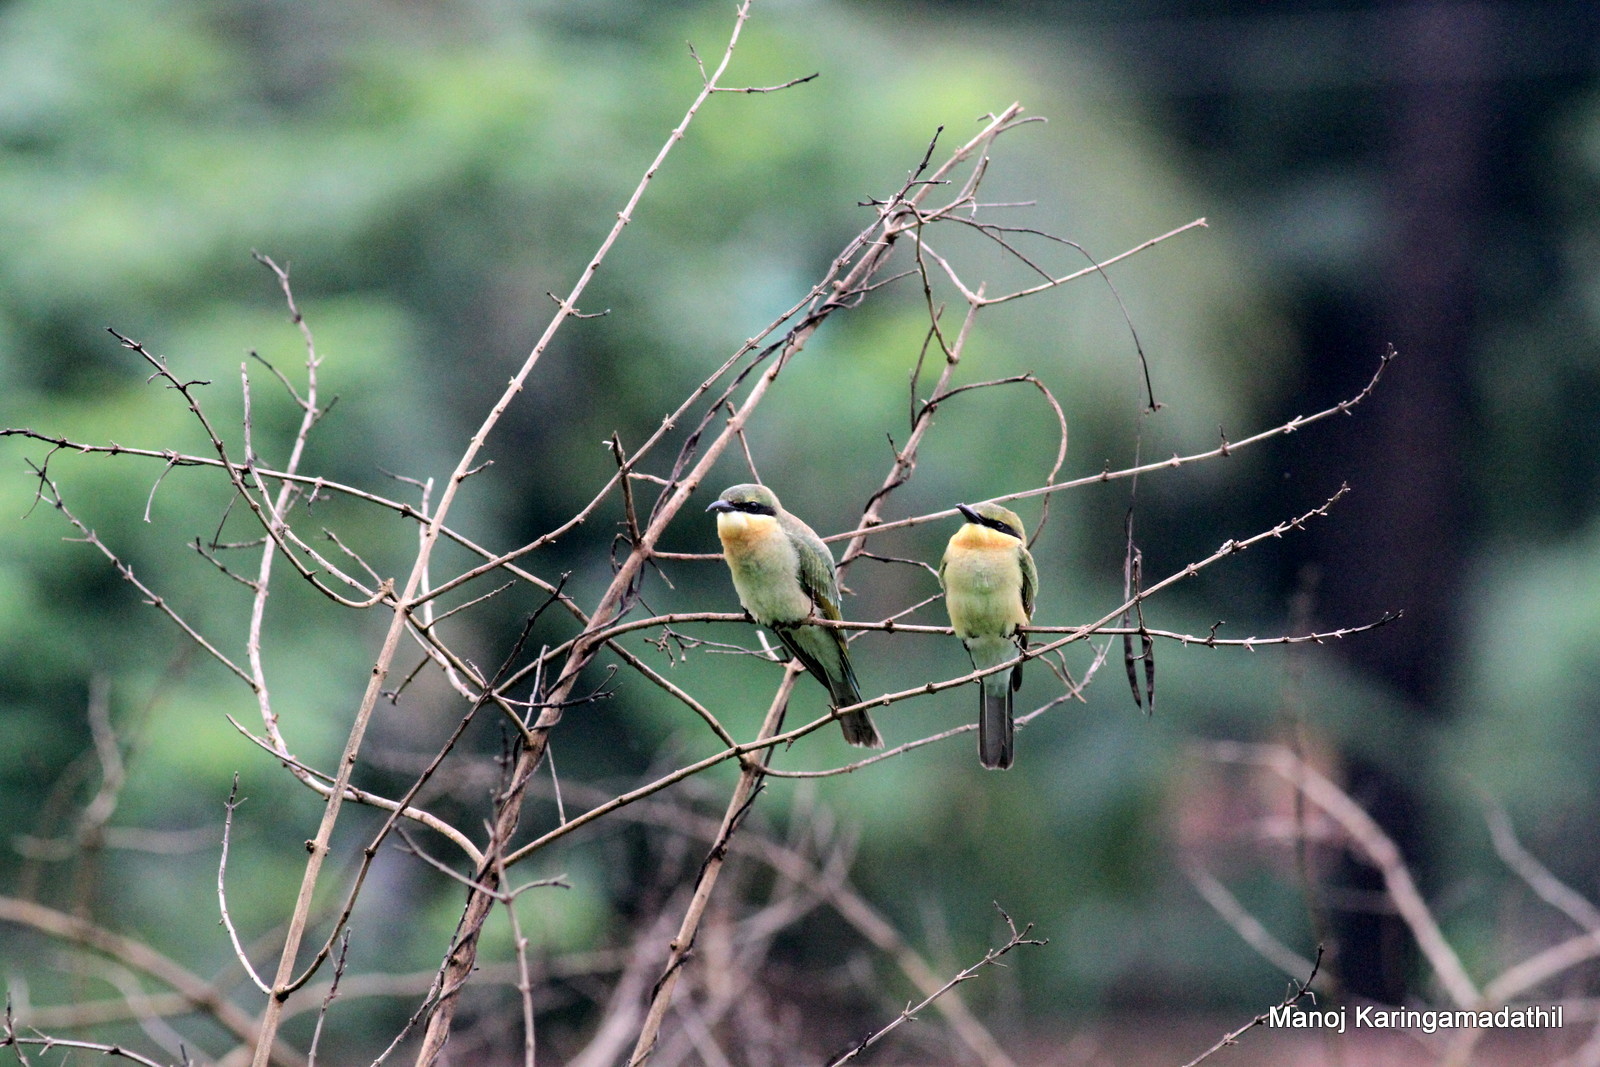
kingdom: Animalia
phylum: Chordata
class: Aves
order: Coraciiformes
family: Meropidae
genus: Merops
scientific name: Merops philippinus
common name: Blue-tailed bee-eater
